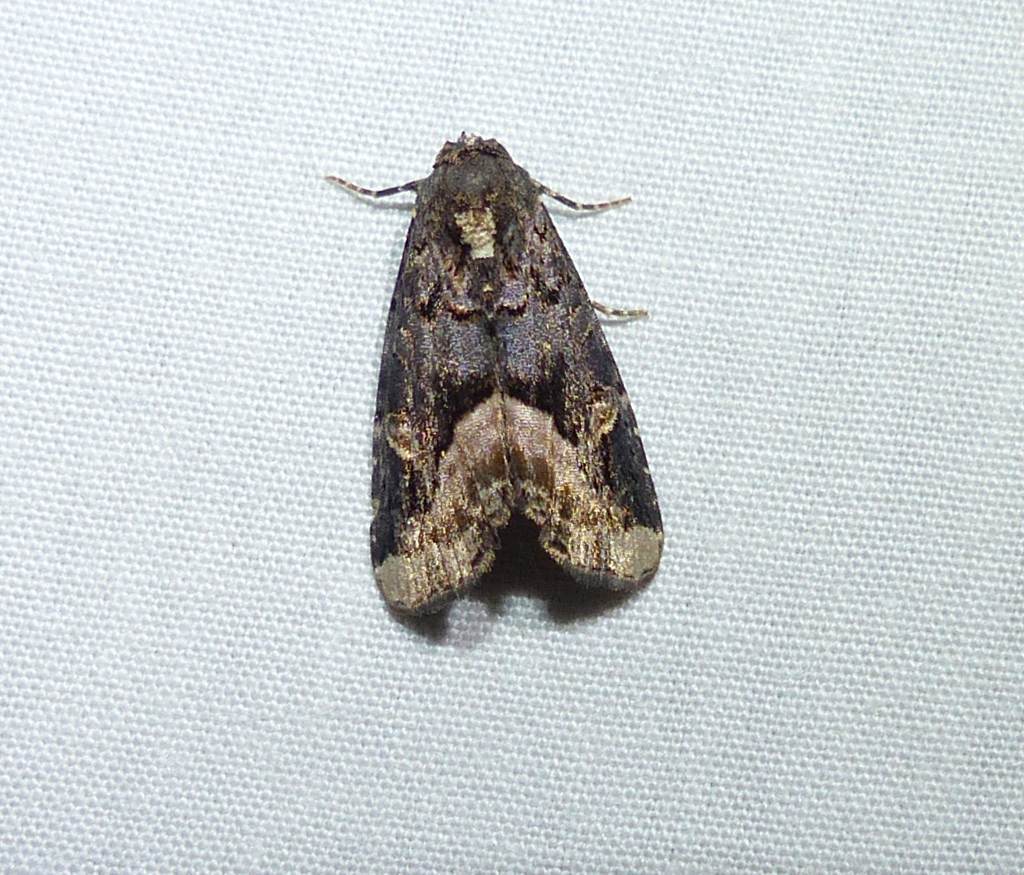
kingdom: Animalia
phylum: Arthropoda
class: Insecta
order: Lepidoptera
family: Noctuidae
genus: Homophoberia
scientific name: Homophoberia apicosa
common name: Black wedge-spot
